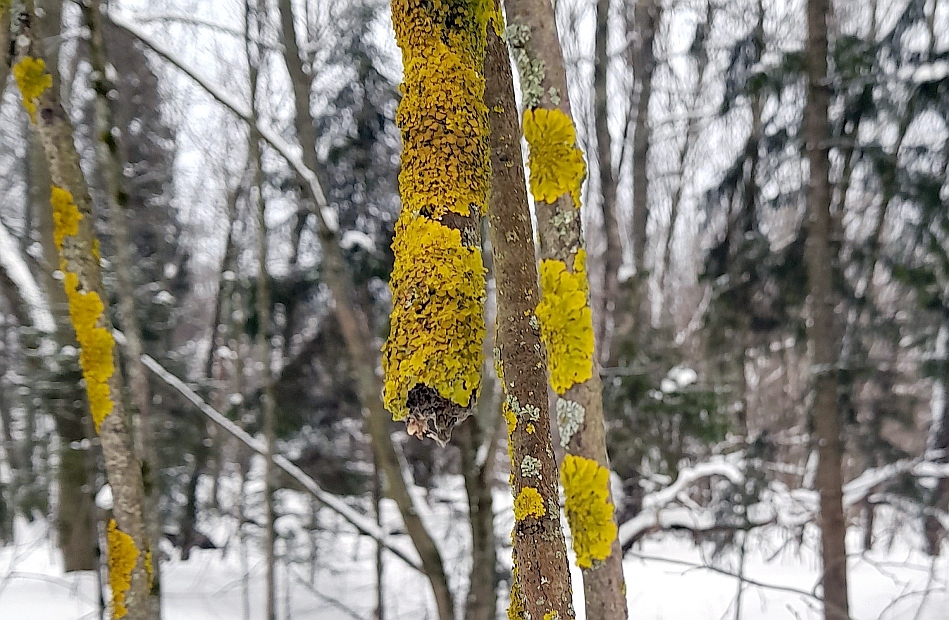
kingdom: Fungi
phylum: Ascomycota
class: Lecanoromycetes
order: Teloschistales
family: Teloschistaceae
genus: Xanthoria
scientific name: Xanthoria parietina
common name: Common orange lichen
